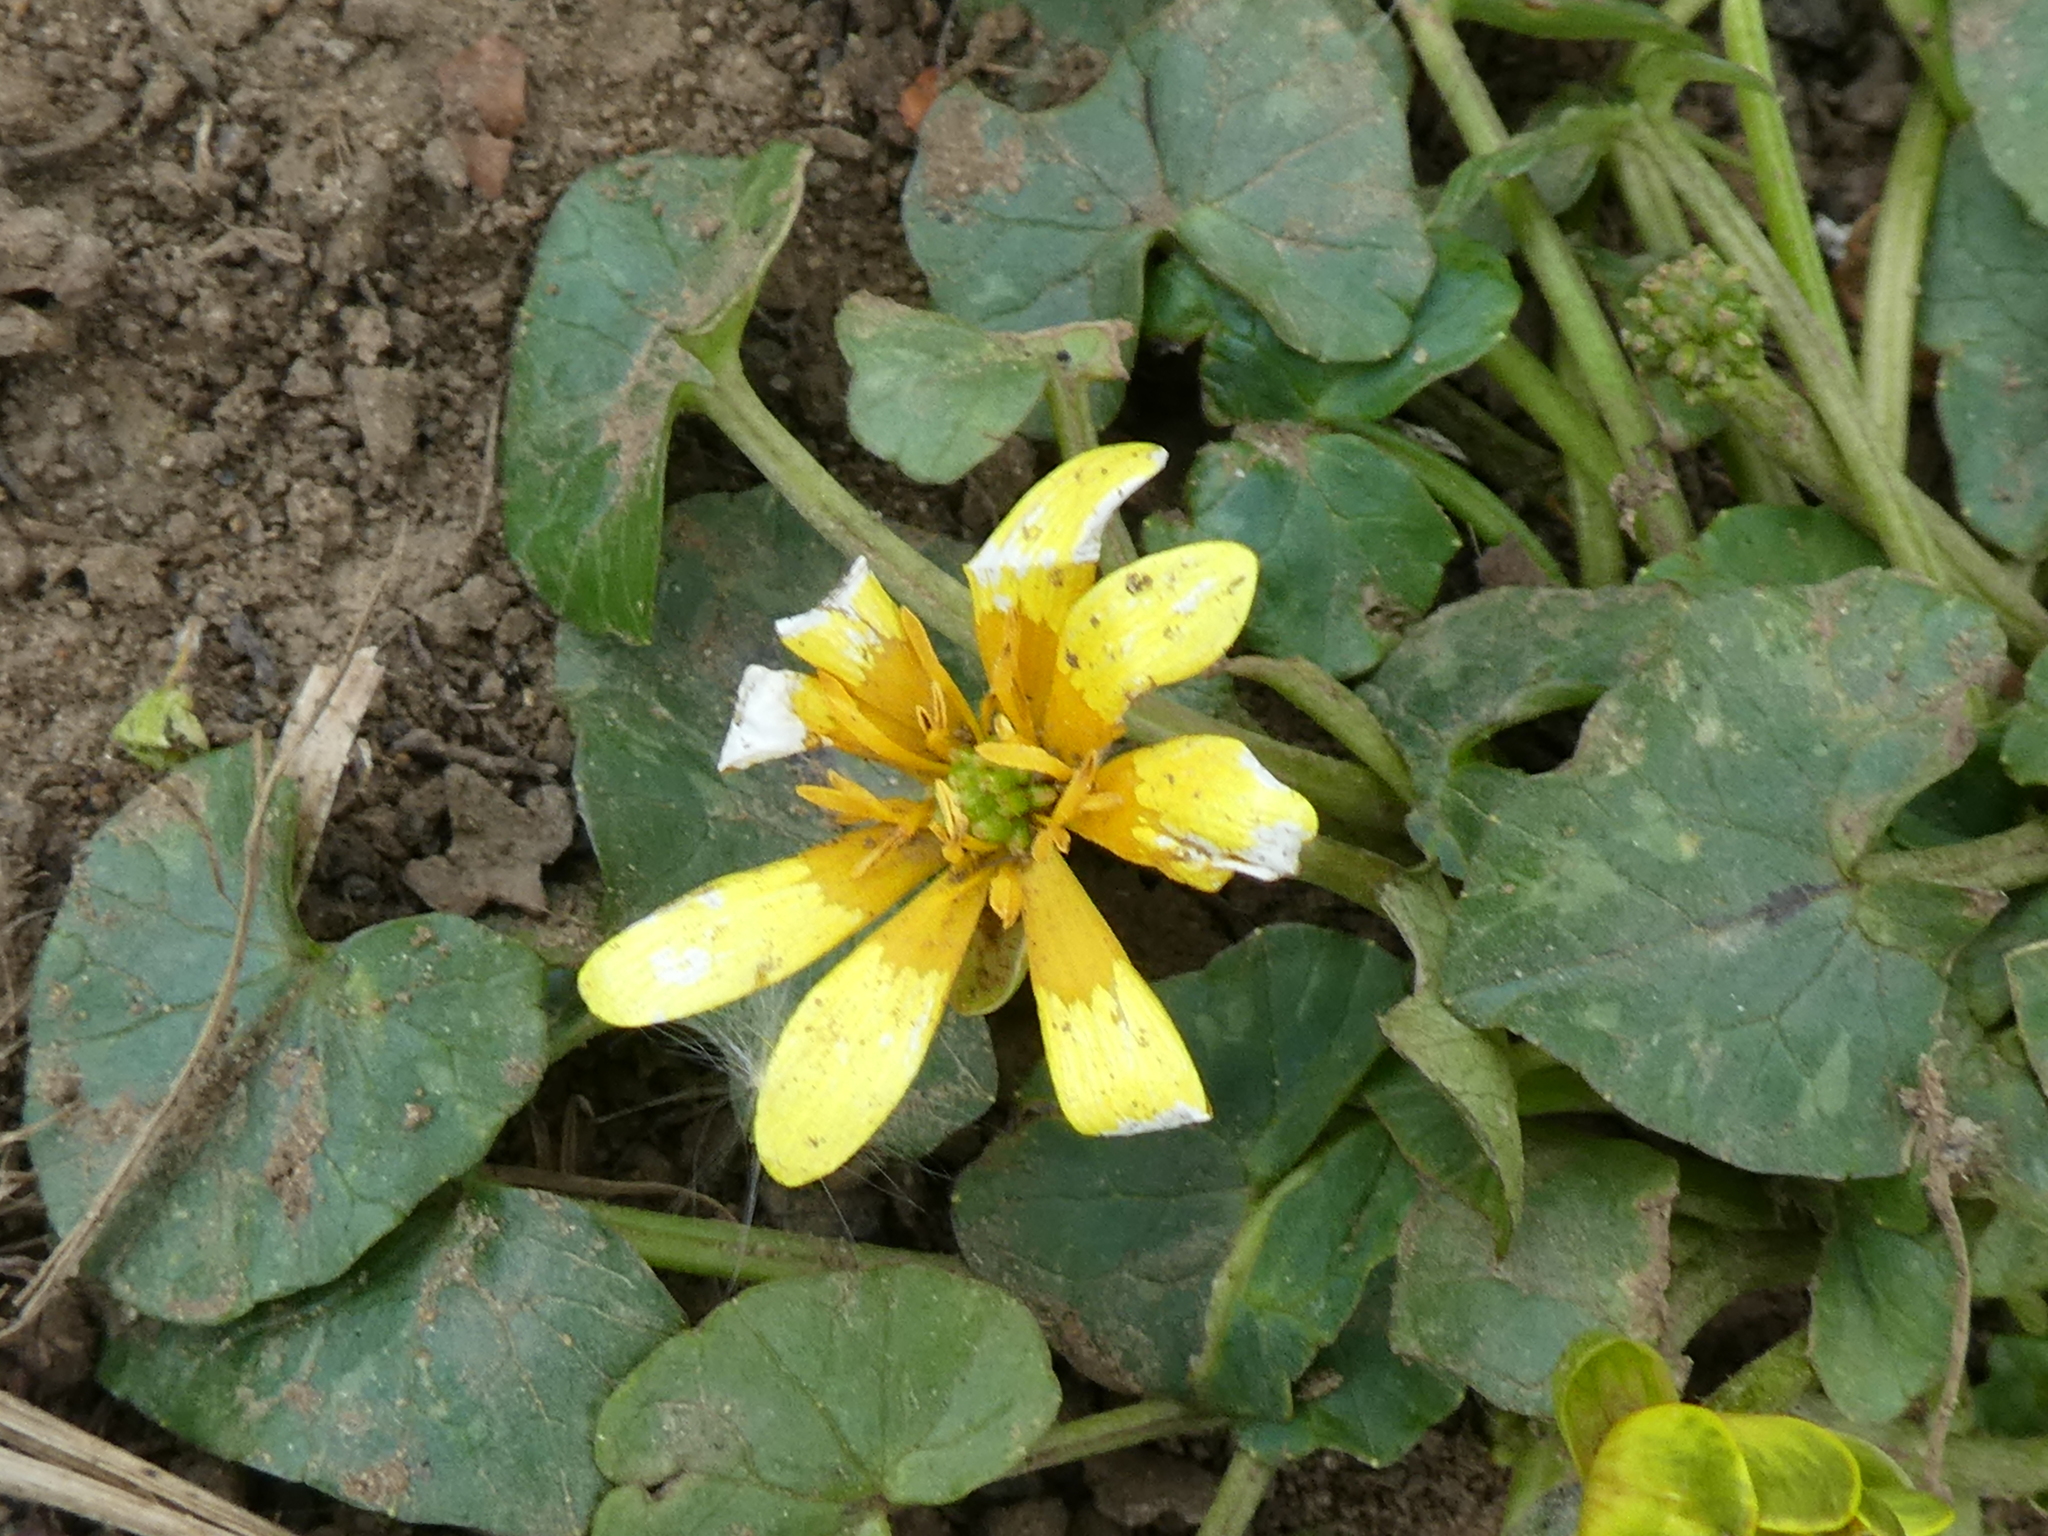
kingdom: Plantae
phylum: Tracheophyta
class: Magnoliopsida
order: Ranunculales
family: Ranunculaceae
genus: Ficaria
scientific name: Ficaria verna
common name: Lesser celandine
